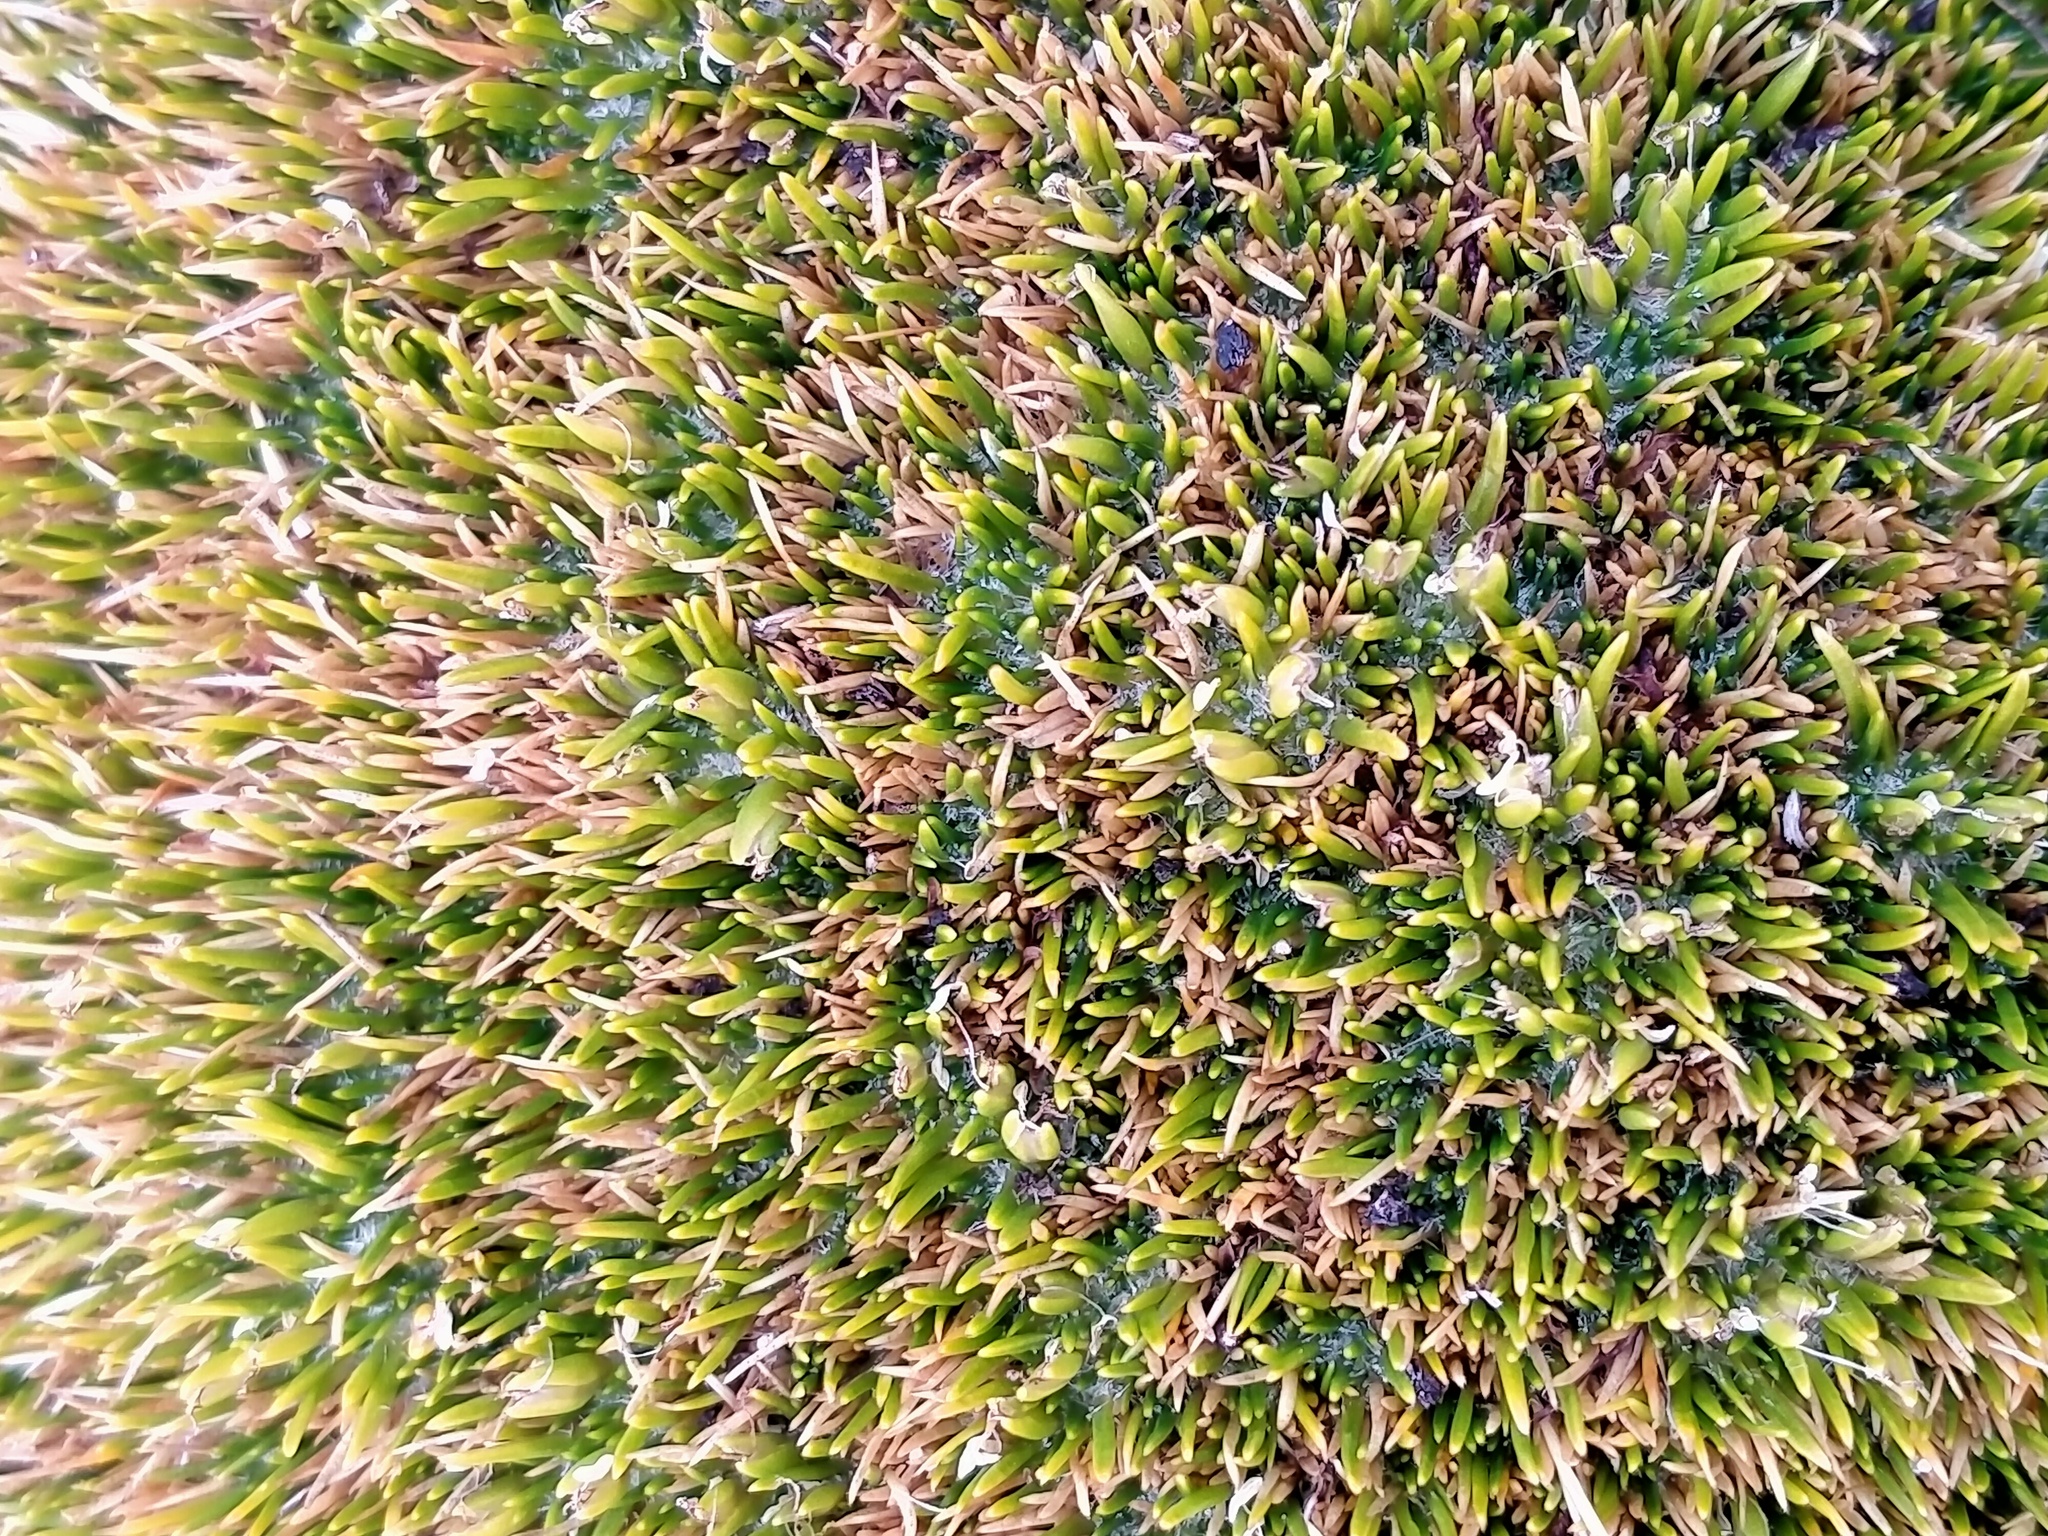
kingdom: Plantae
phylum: Tracheophyta
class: Liliopsida
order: Poales
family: Restionaceae
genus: Centrolepis
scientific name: Centrolepis pallida
